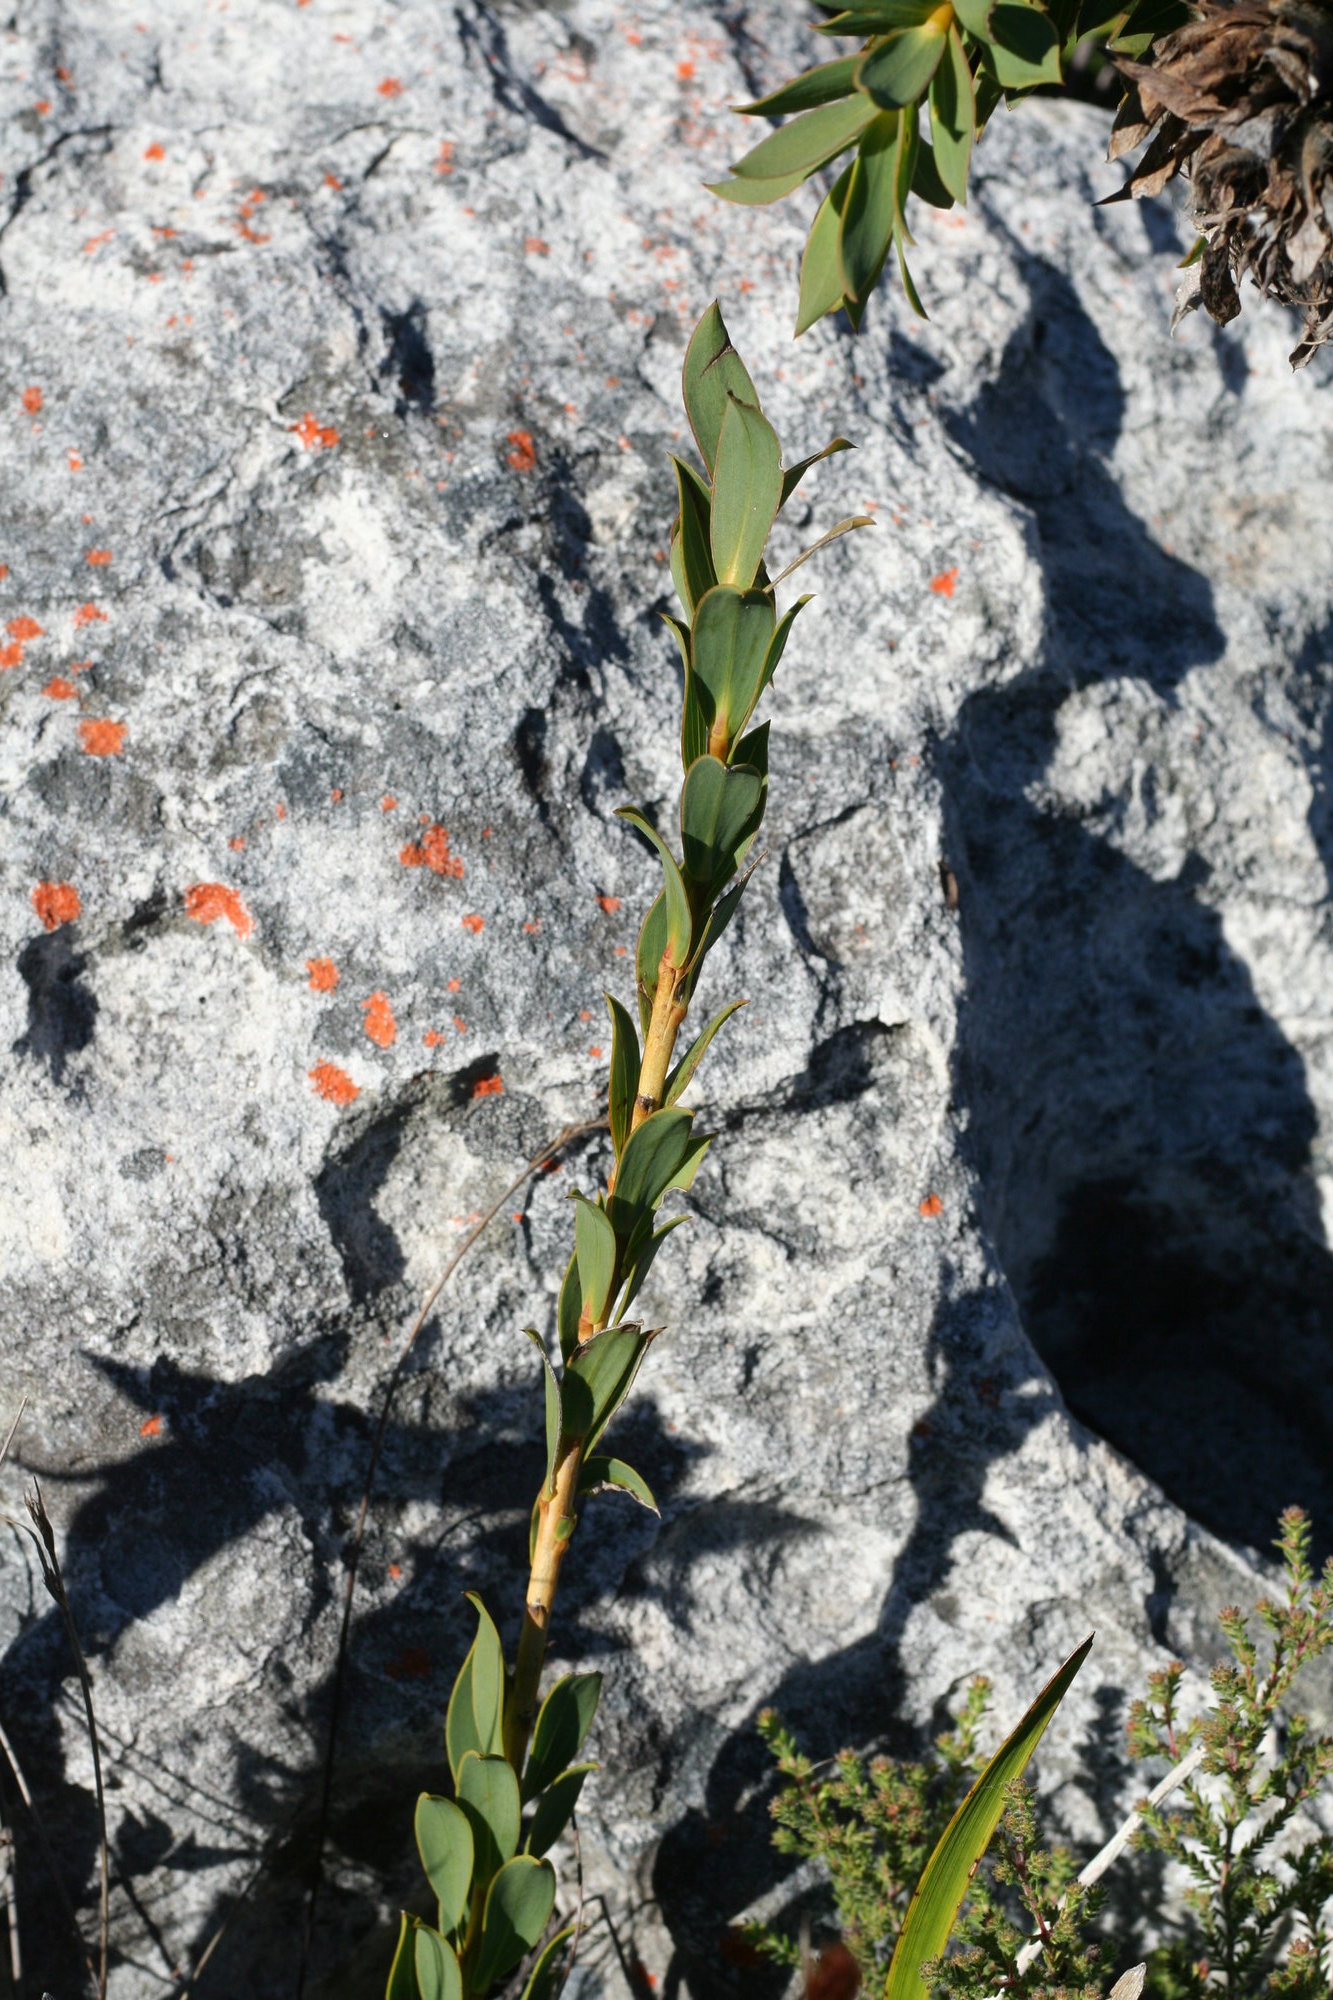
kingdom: Plantae
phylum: Tracheophyta
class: Magnoliopsida
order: Fabales
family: Fabaceae
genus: Liparia
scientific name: Liparia splendens
